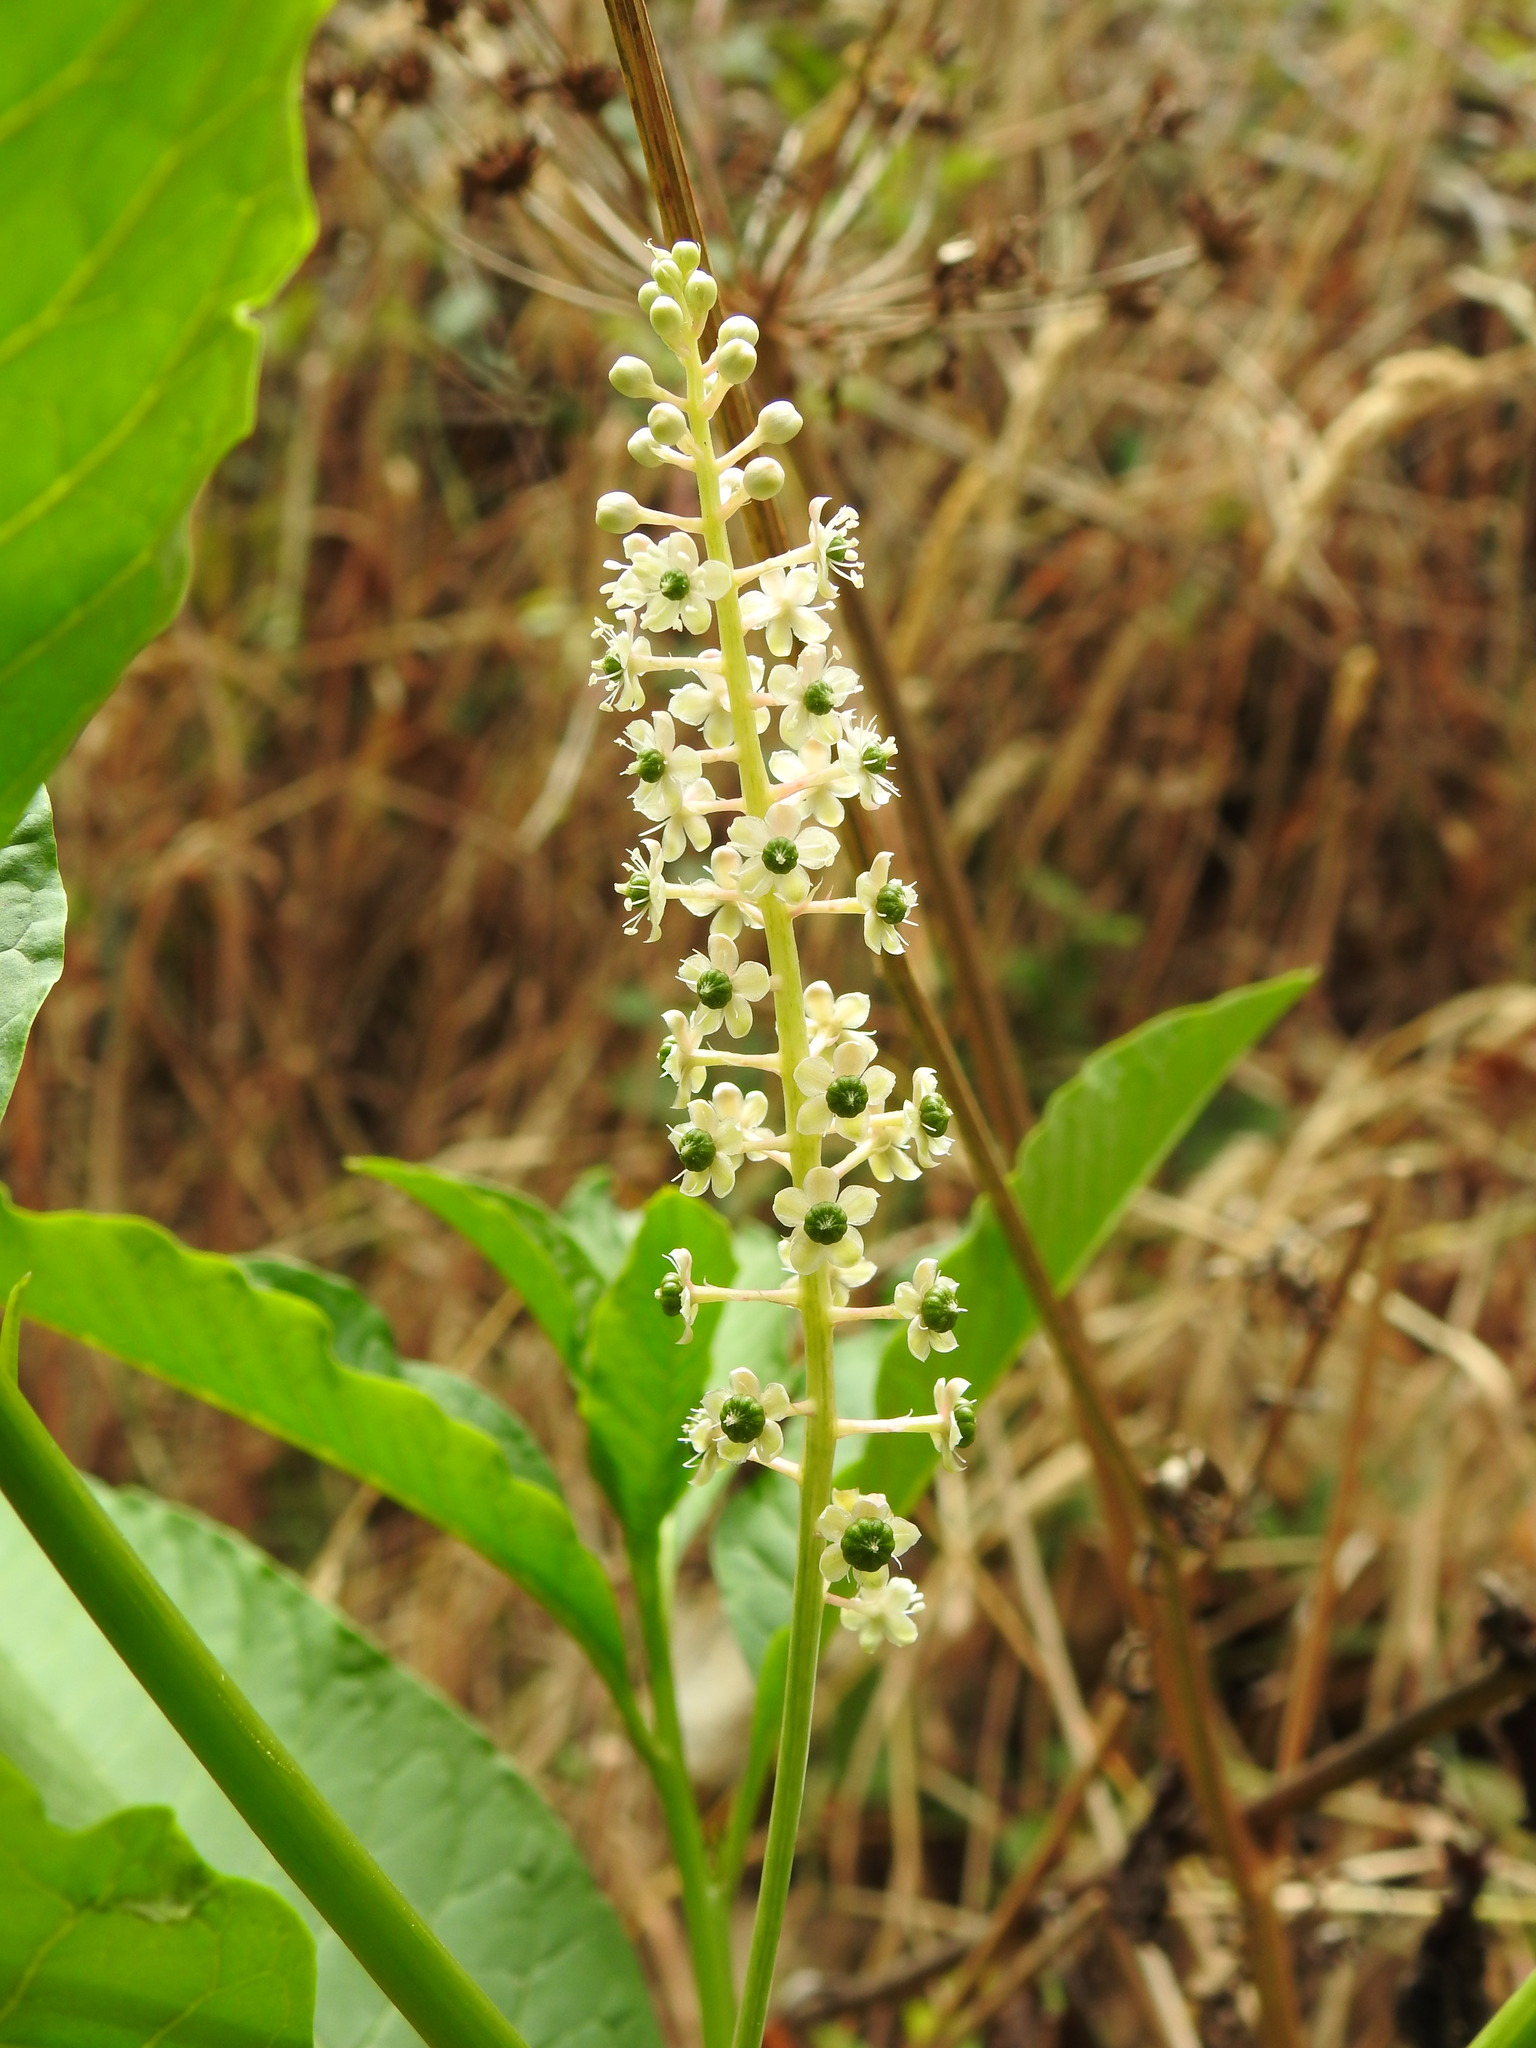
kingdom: Plantae
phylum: Tracheophyta
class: Magnoliopsida
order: Caryophyllales
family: Phytolaccaceae
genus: Phytolacca
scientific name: Phytolacca americana
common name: American pokeweed
